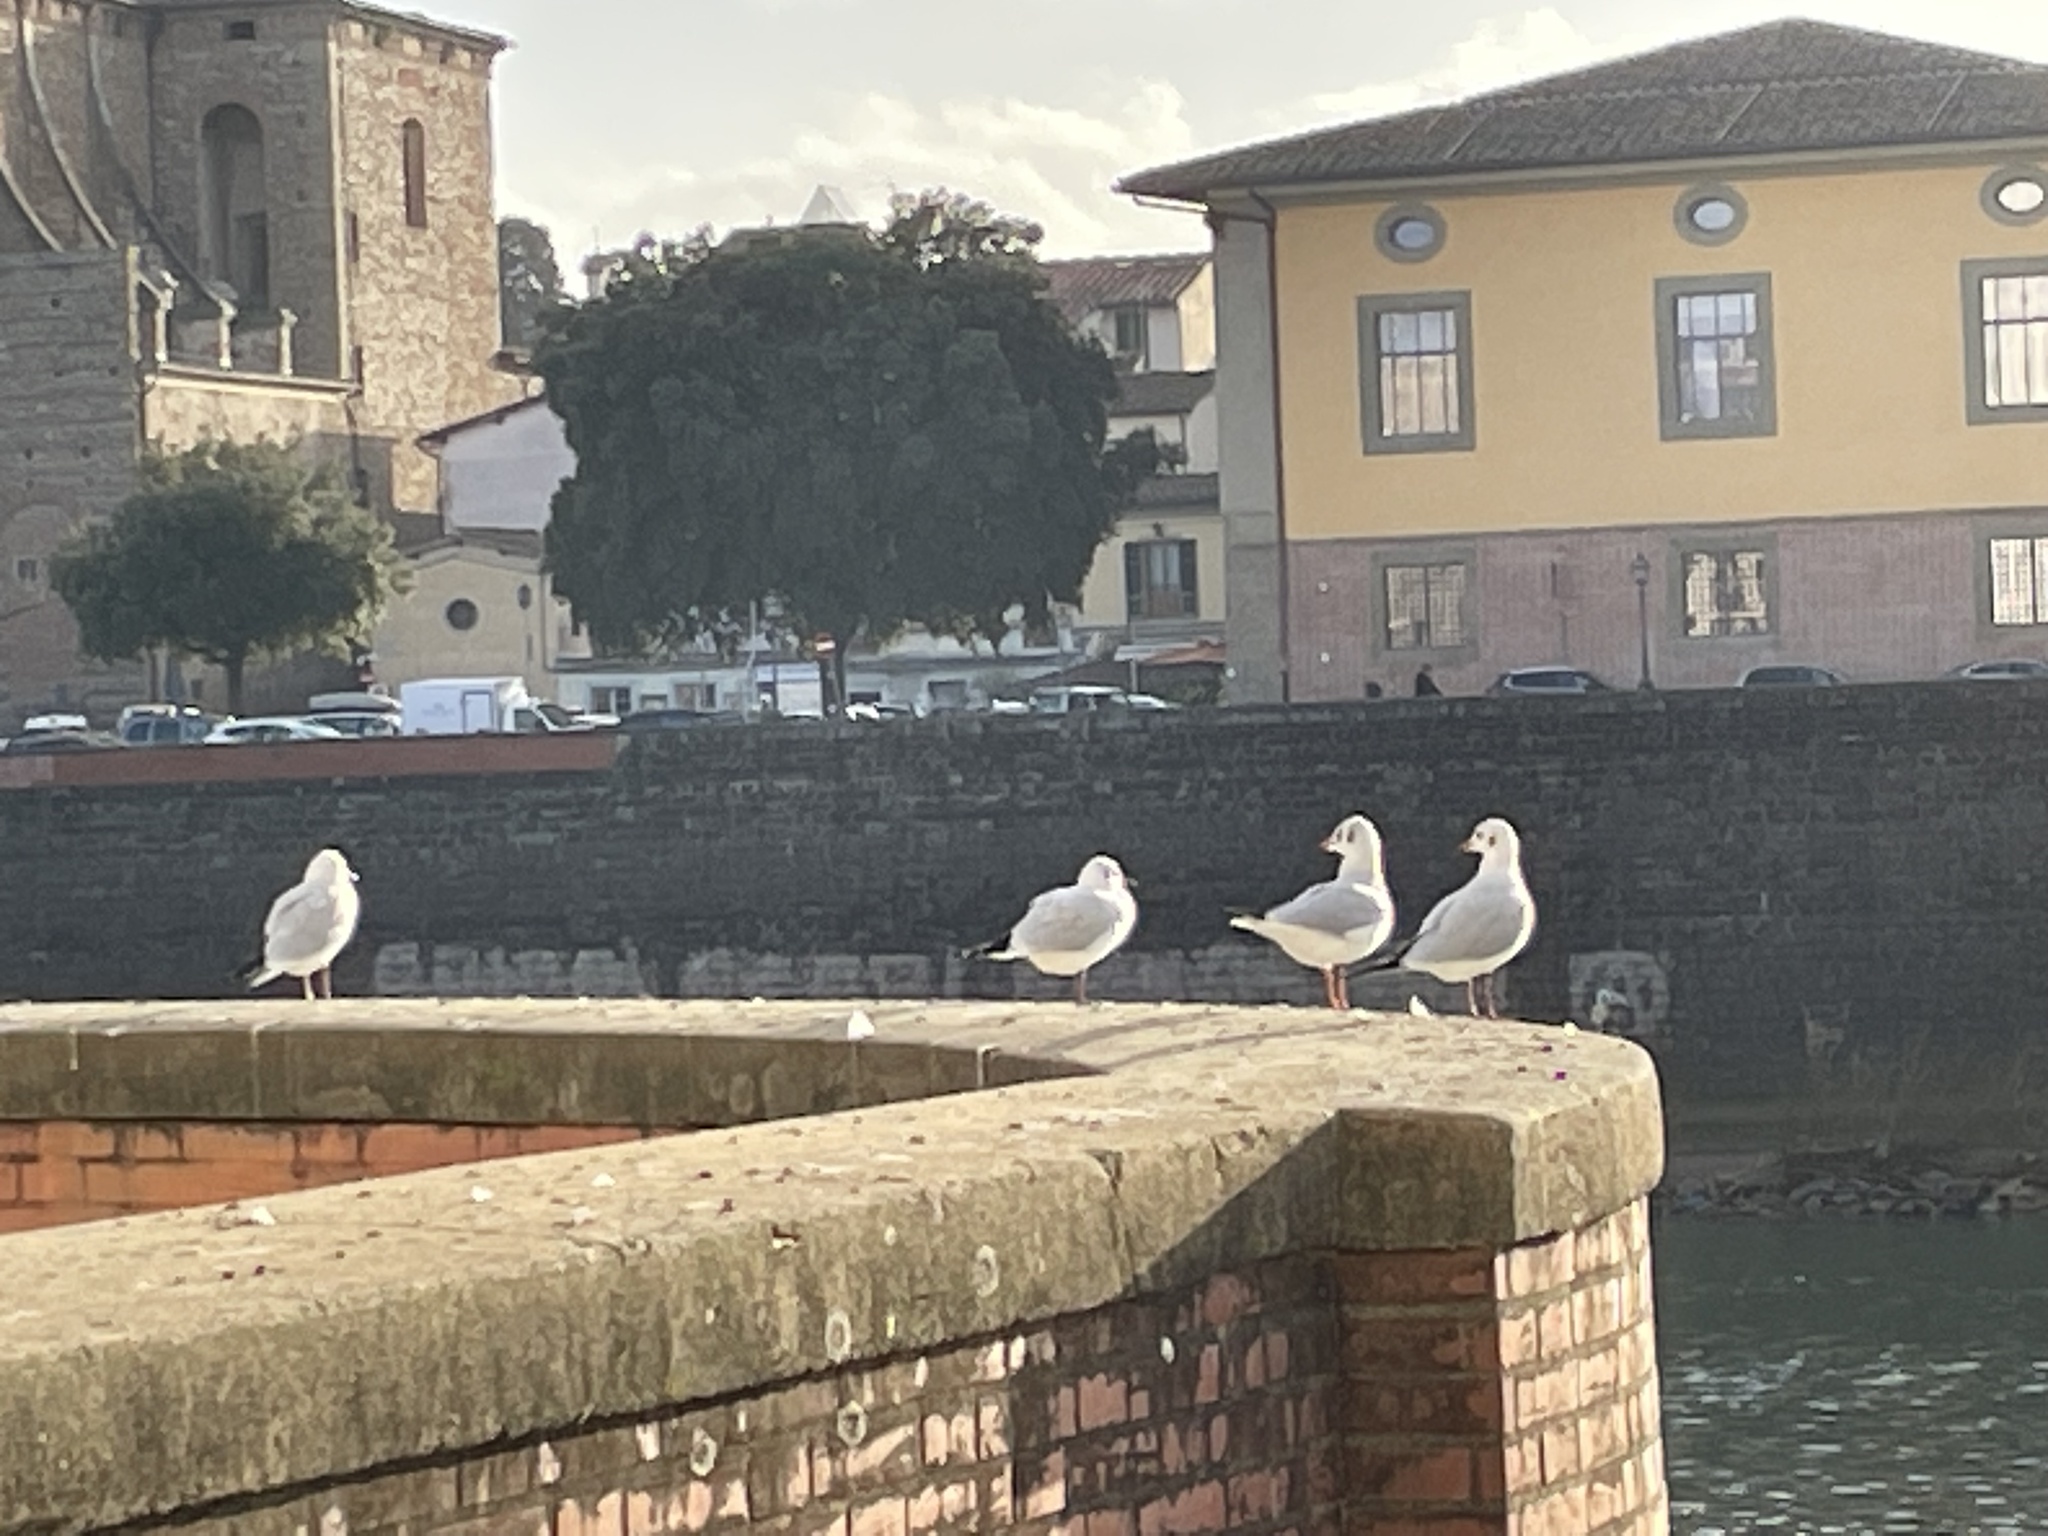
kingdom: Animalia
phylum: Chordata
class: Aves
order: Charadriiformes
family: Laridae
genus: Chroicocephalus
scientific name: Chroicocephalus ridibundus
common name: Black-headed gull
